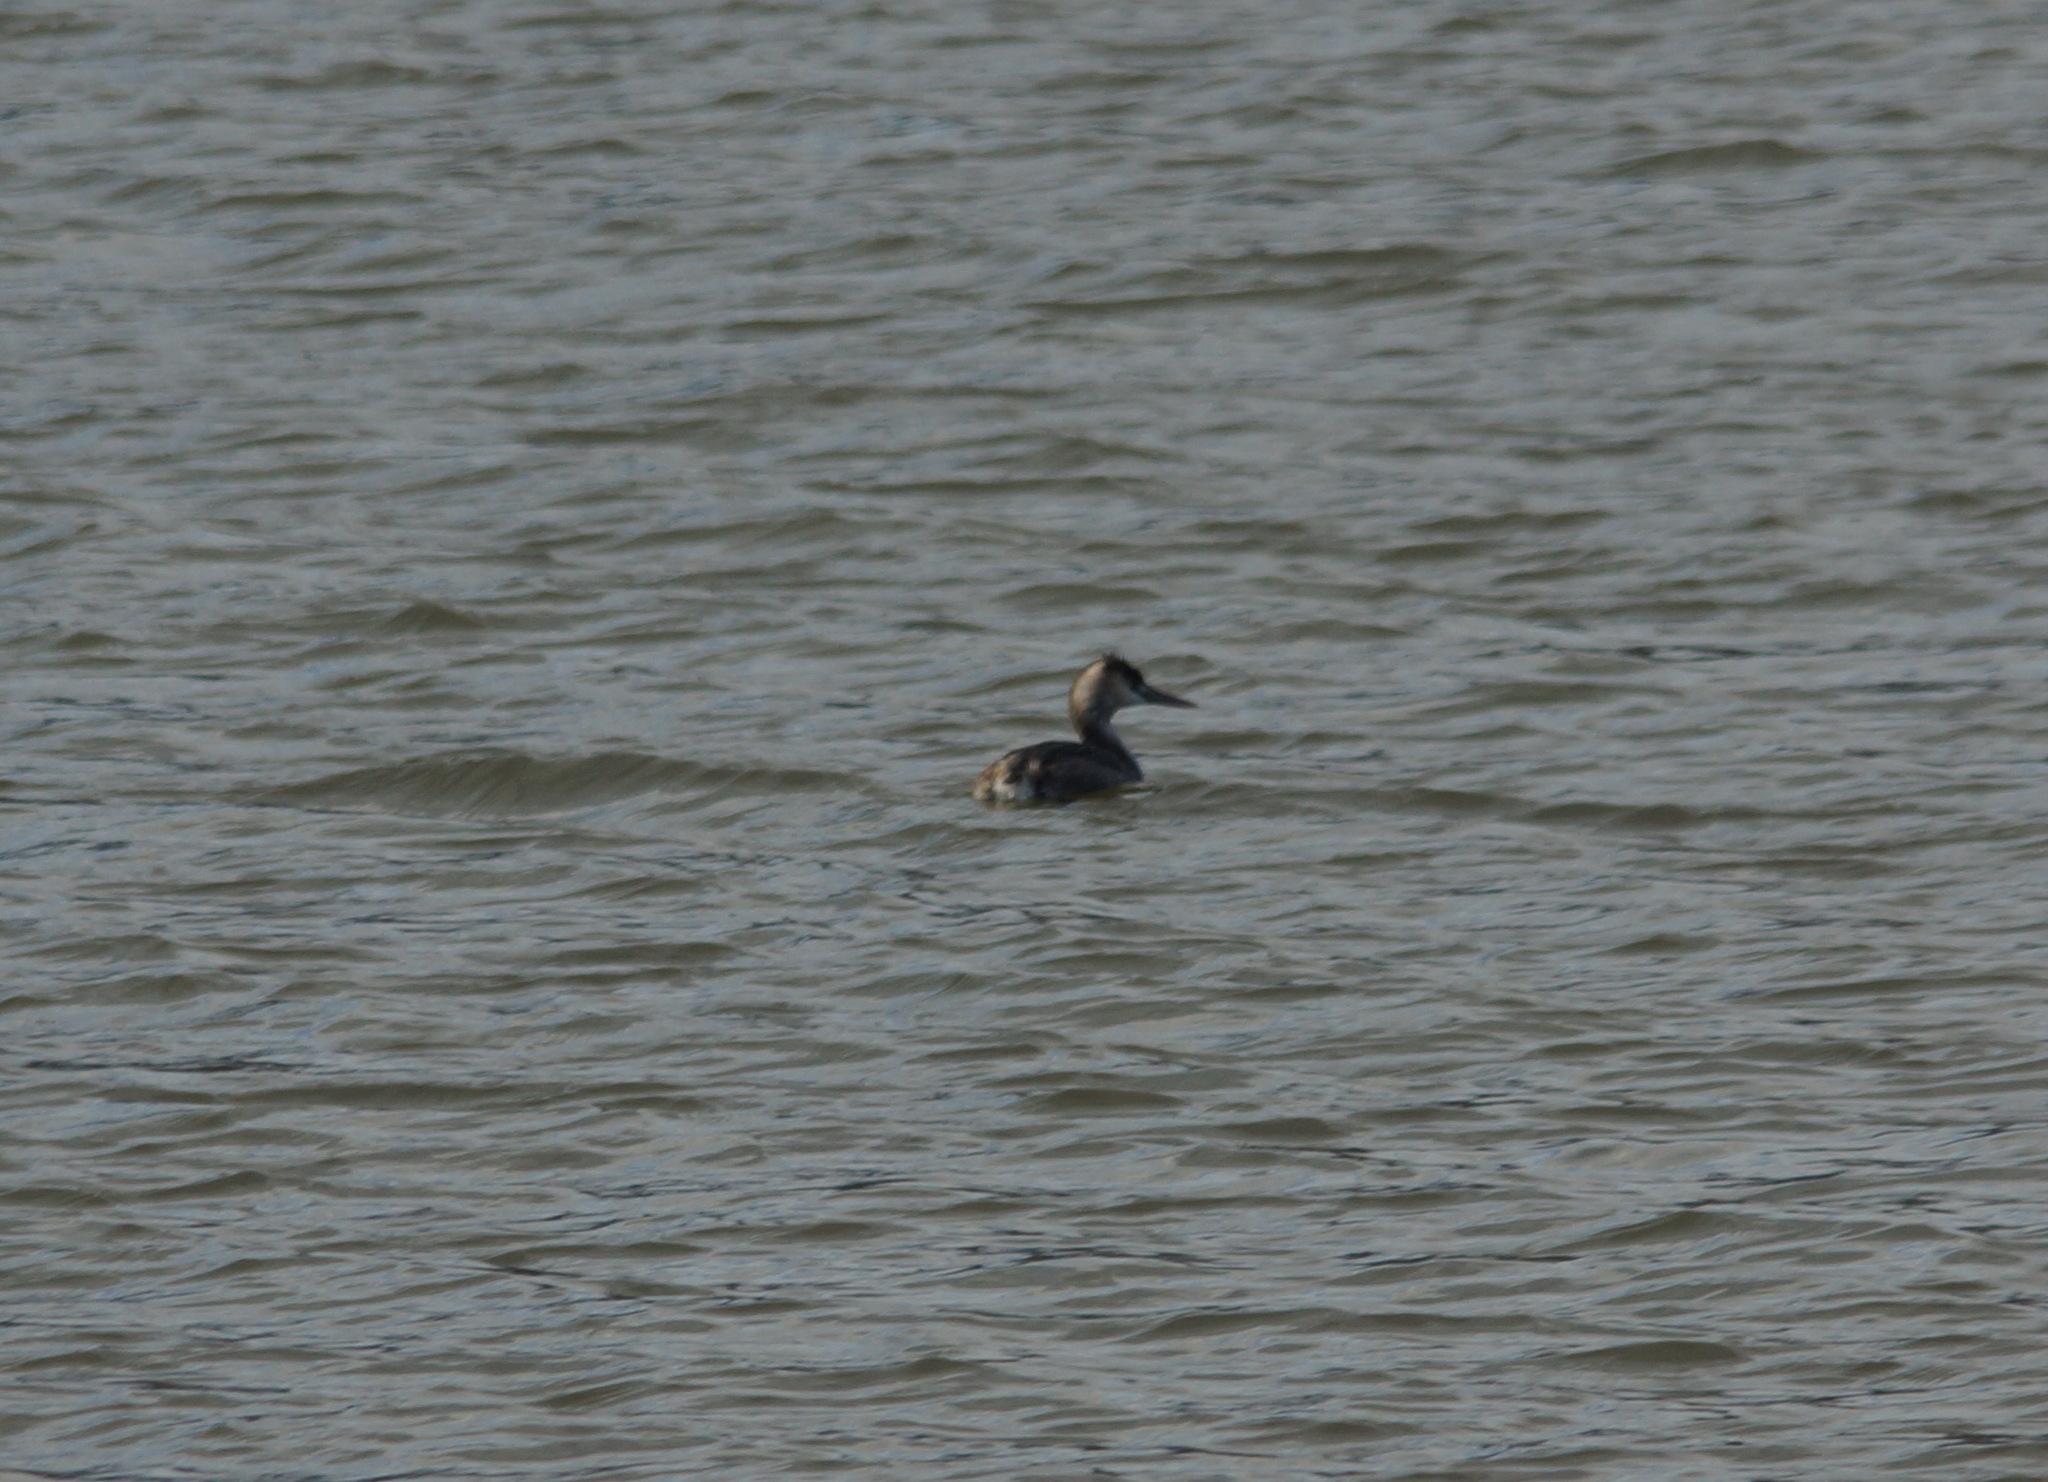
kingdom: Animalia
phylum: Chordata
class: Aves
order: Podicipediformes
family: Podicipedidae
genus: Podiceps
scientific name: Podiceps cristatus
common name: Great crested grebe
